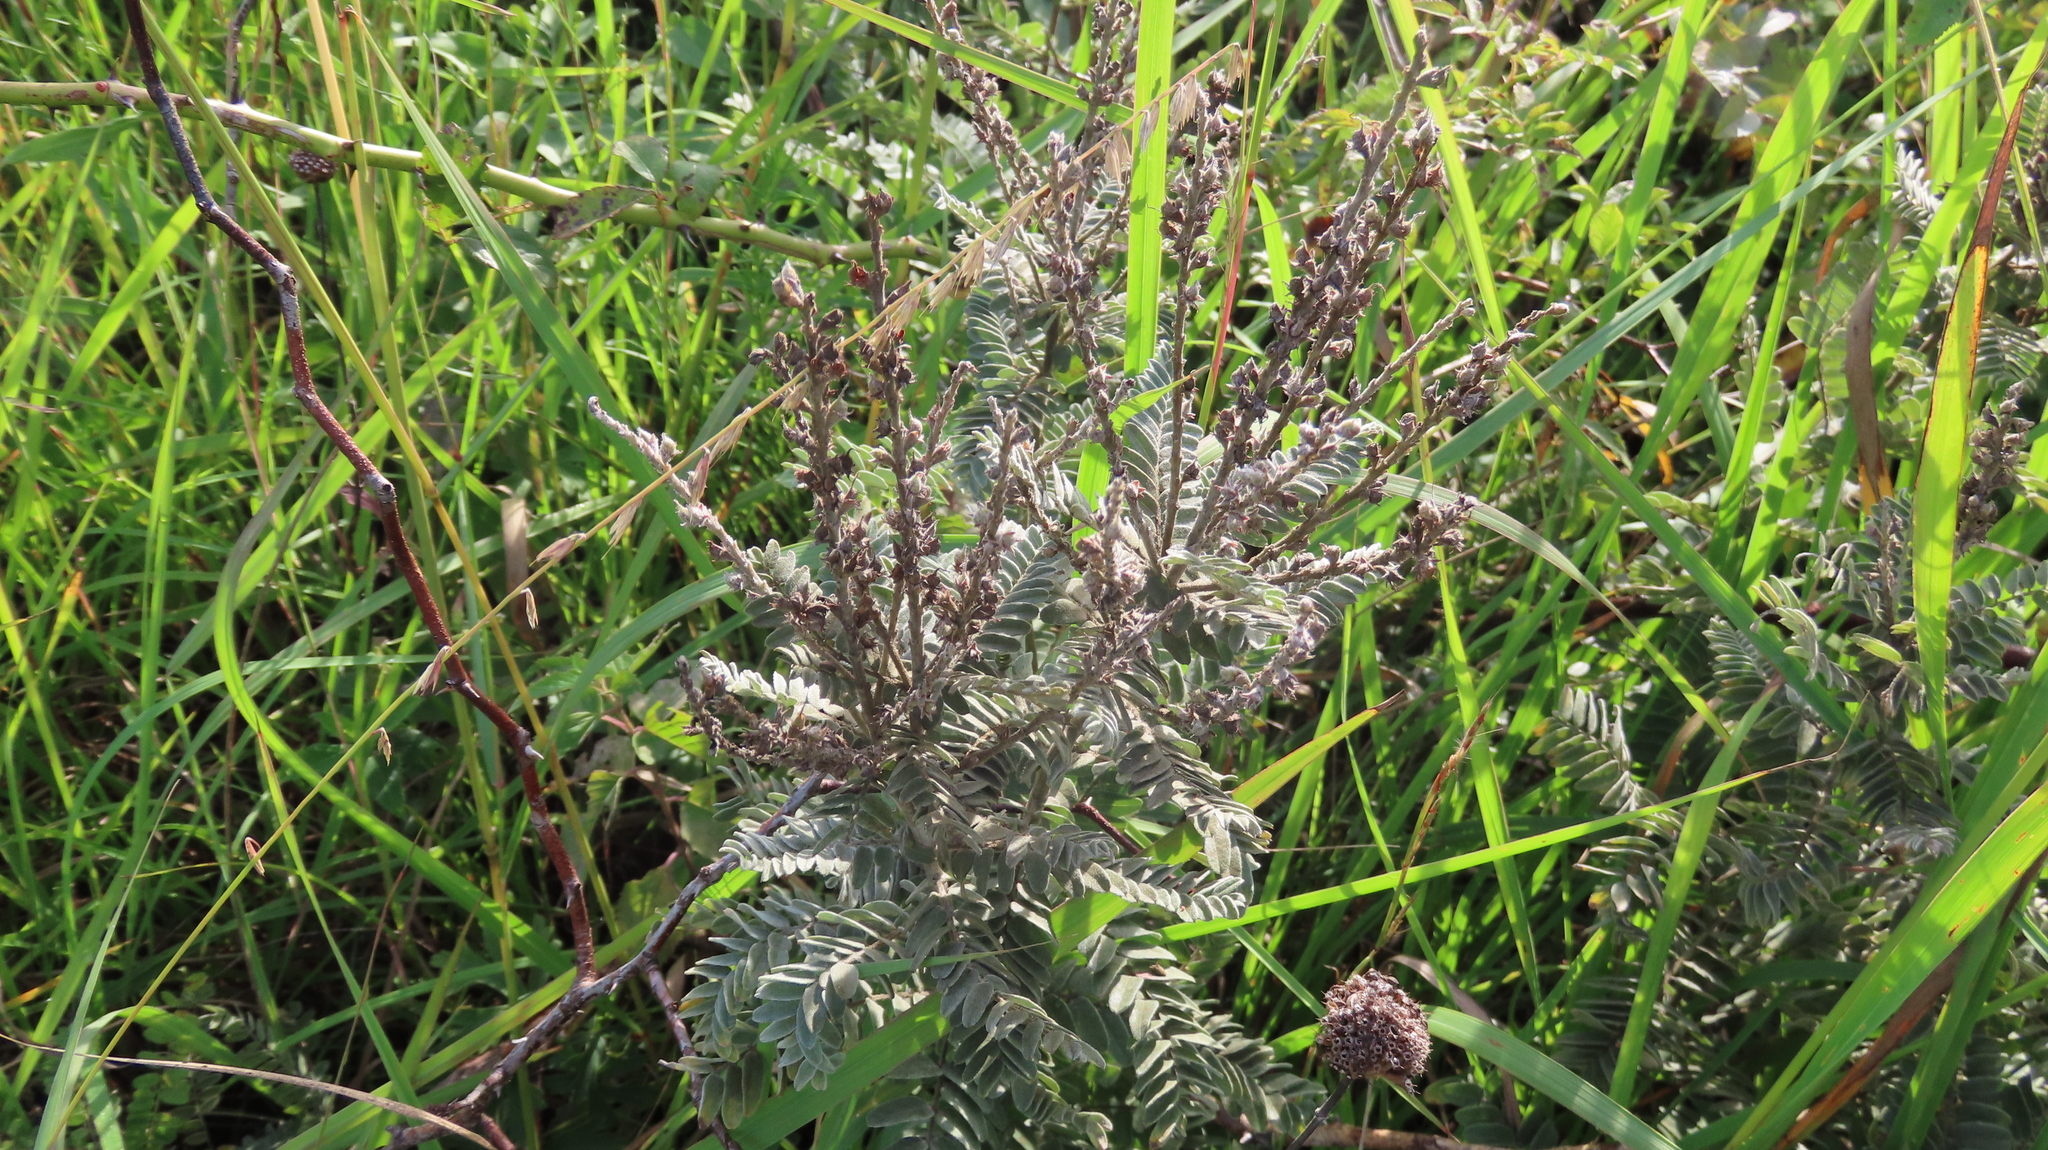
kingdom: Plantae
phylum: Tracheophyta
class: Magnoliopsida
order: Fabales
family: Fabaceae
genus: Amorpha
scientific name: Amorpha canescens
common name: Leadplant
